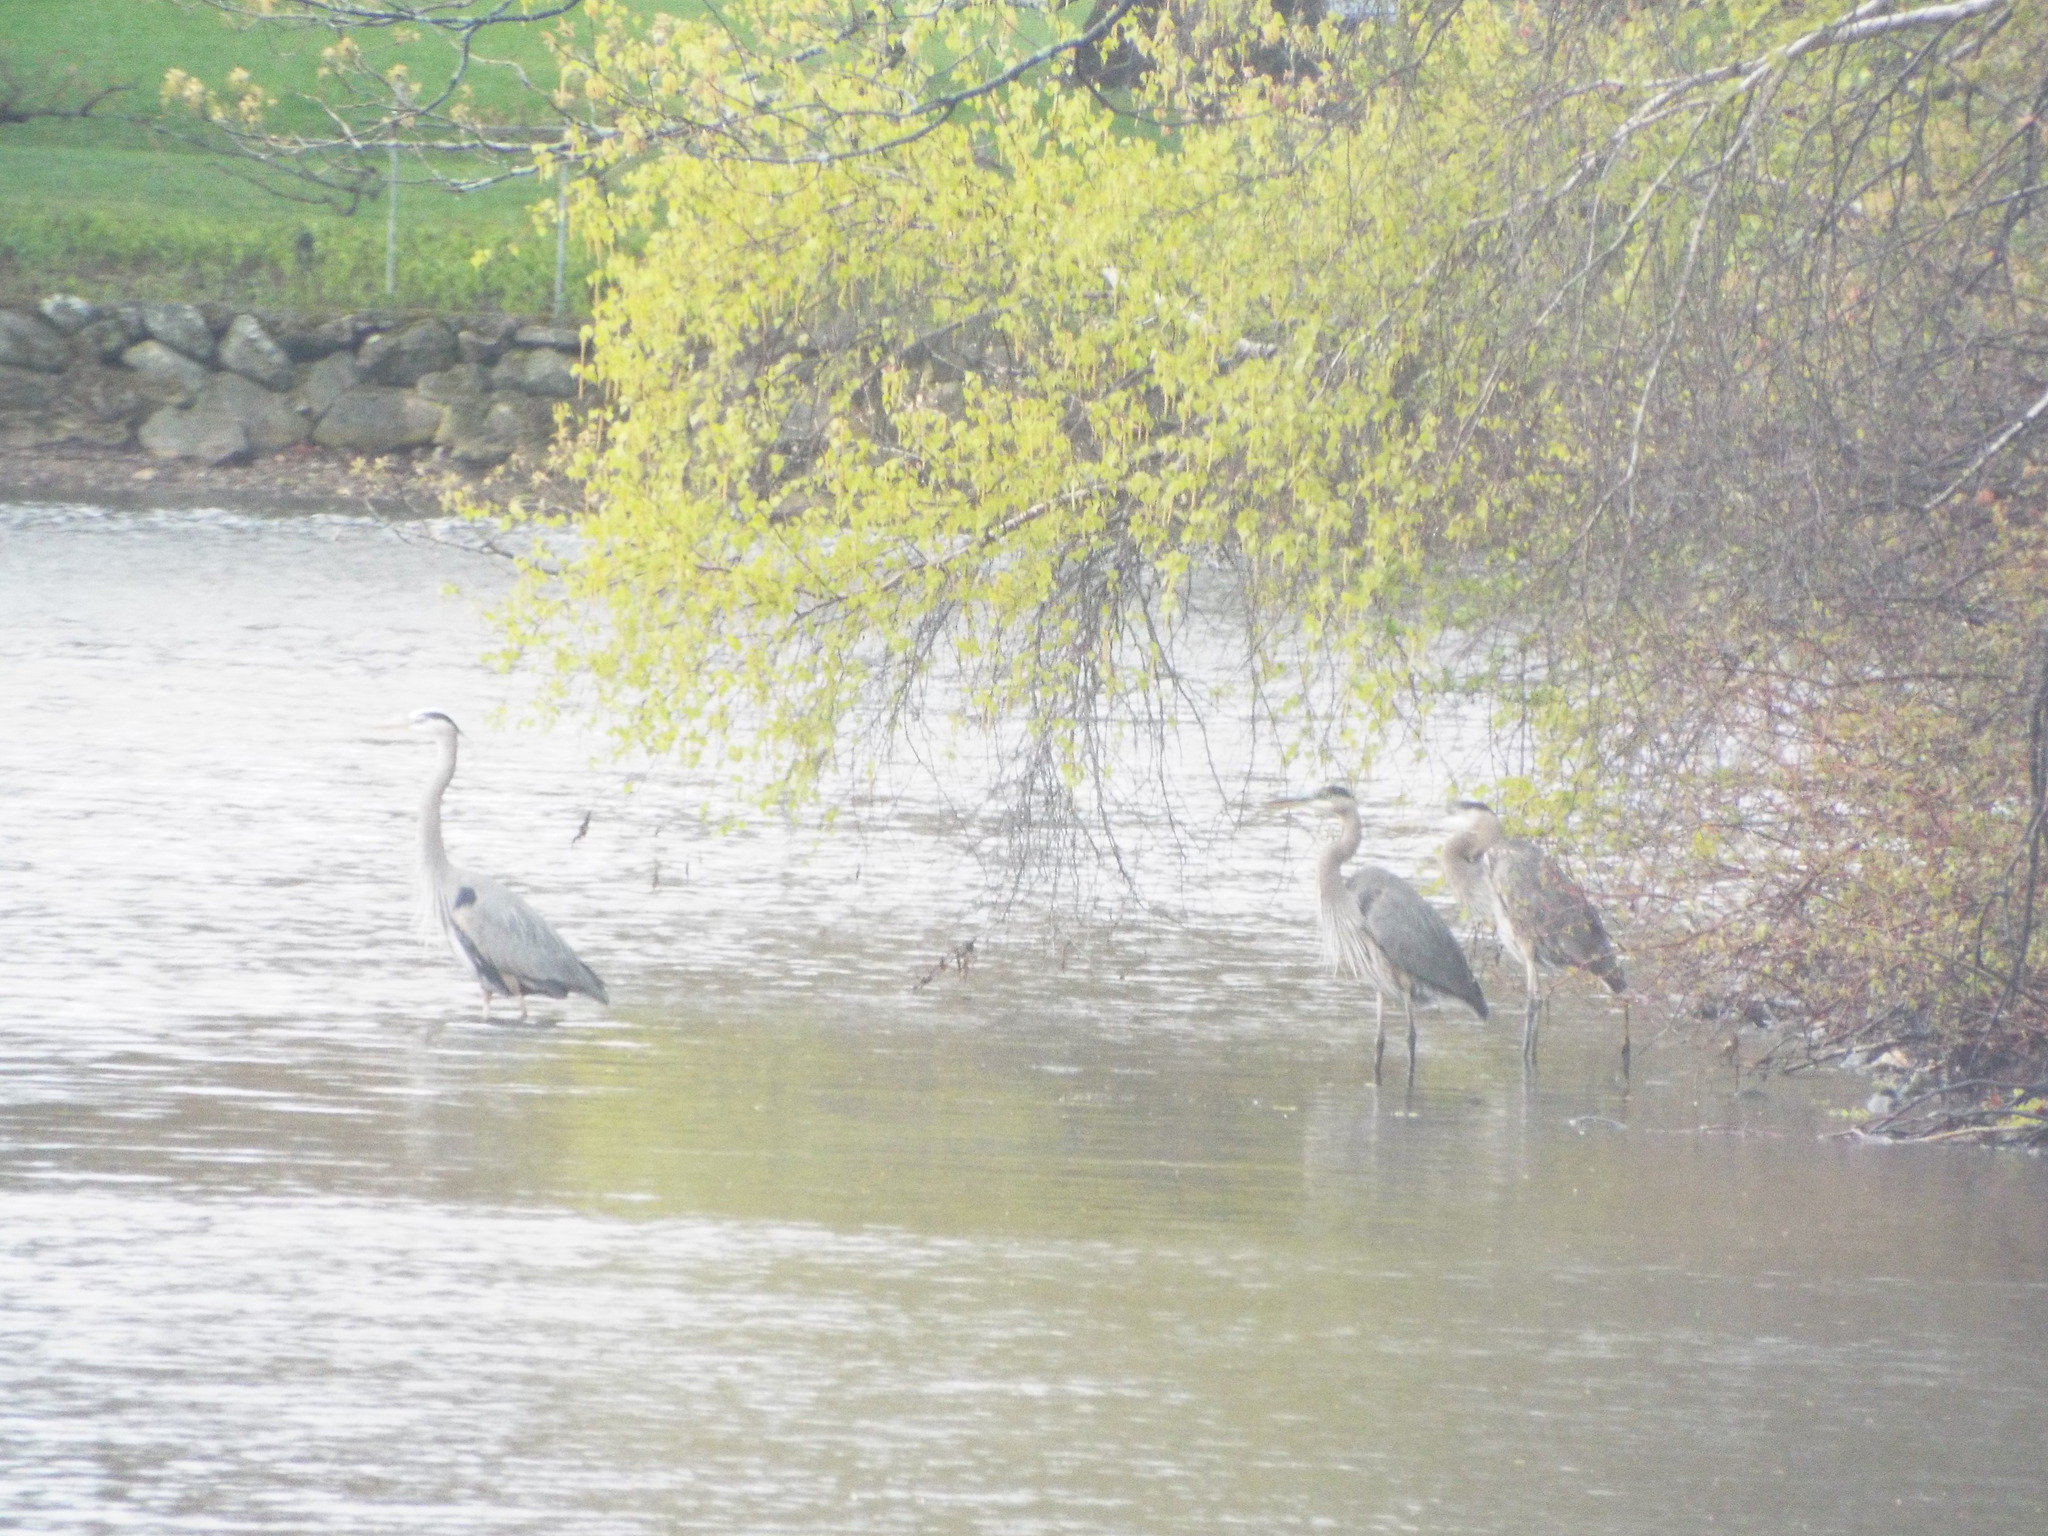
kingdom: Animalia
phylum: Chordata
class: Aves
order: Pelecaniformes
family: Ardeidae
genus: Ardea
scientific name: Ardea herodias
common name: Great blue heron
